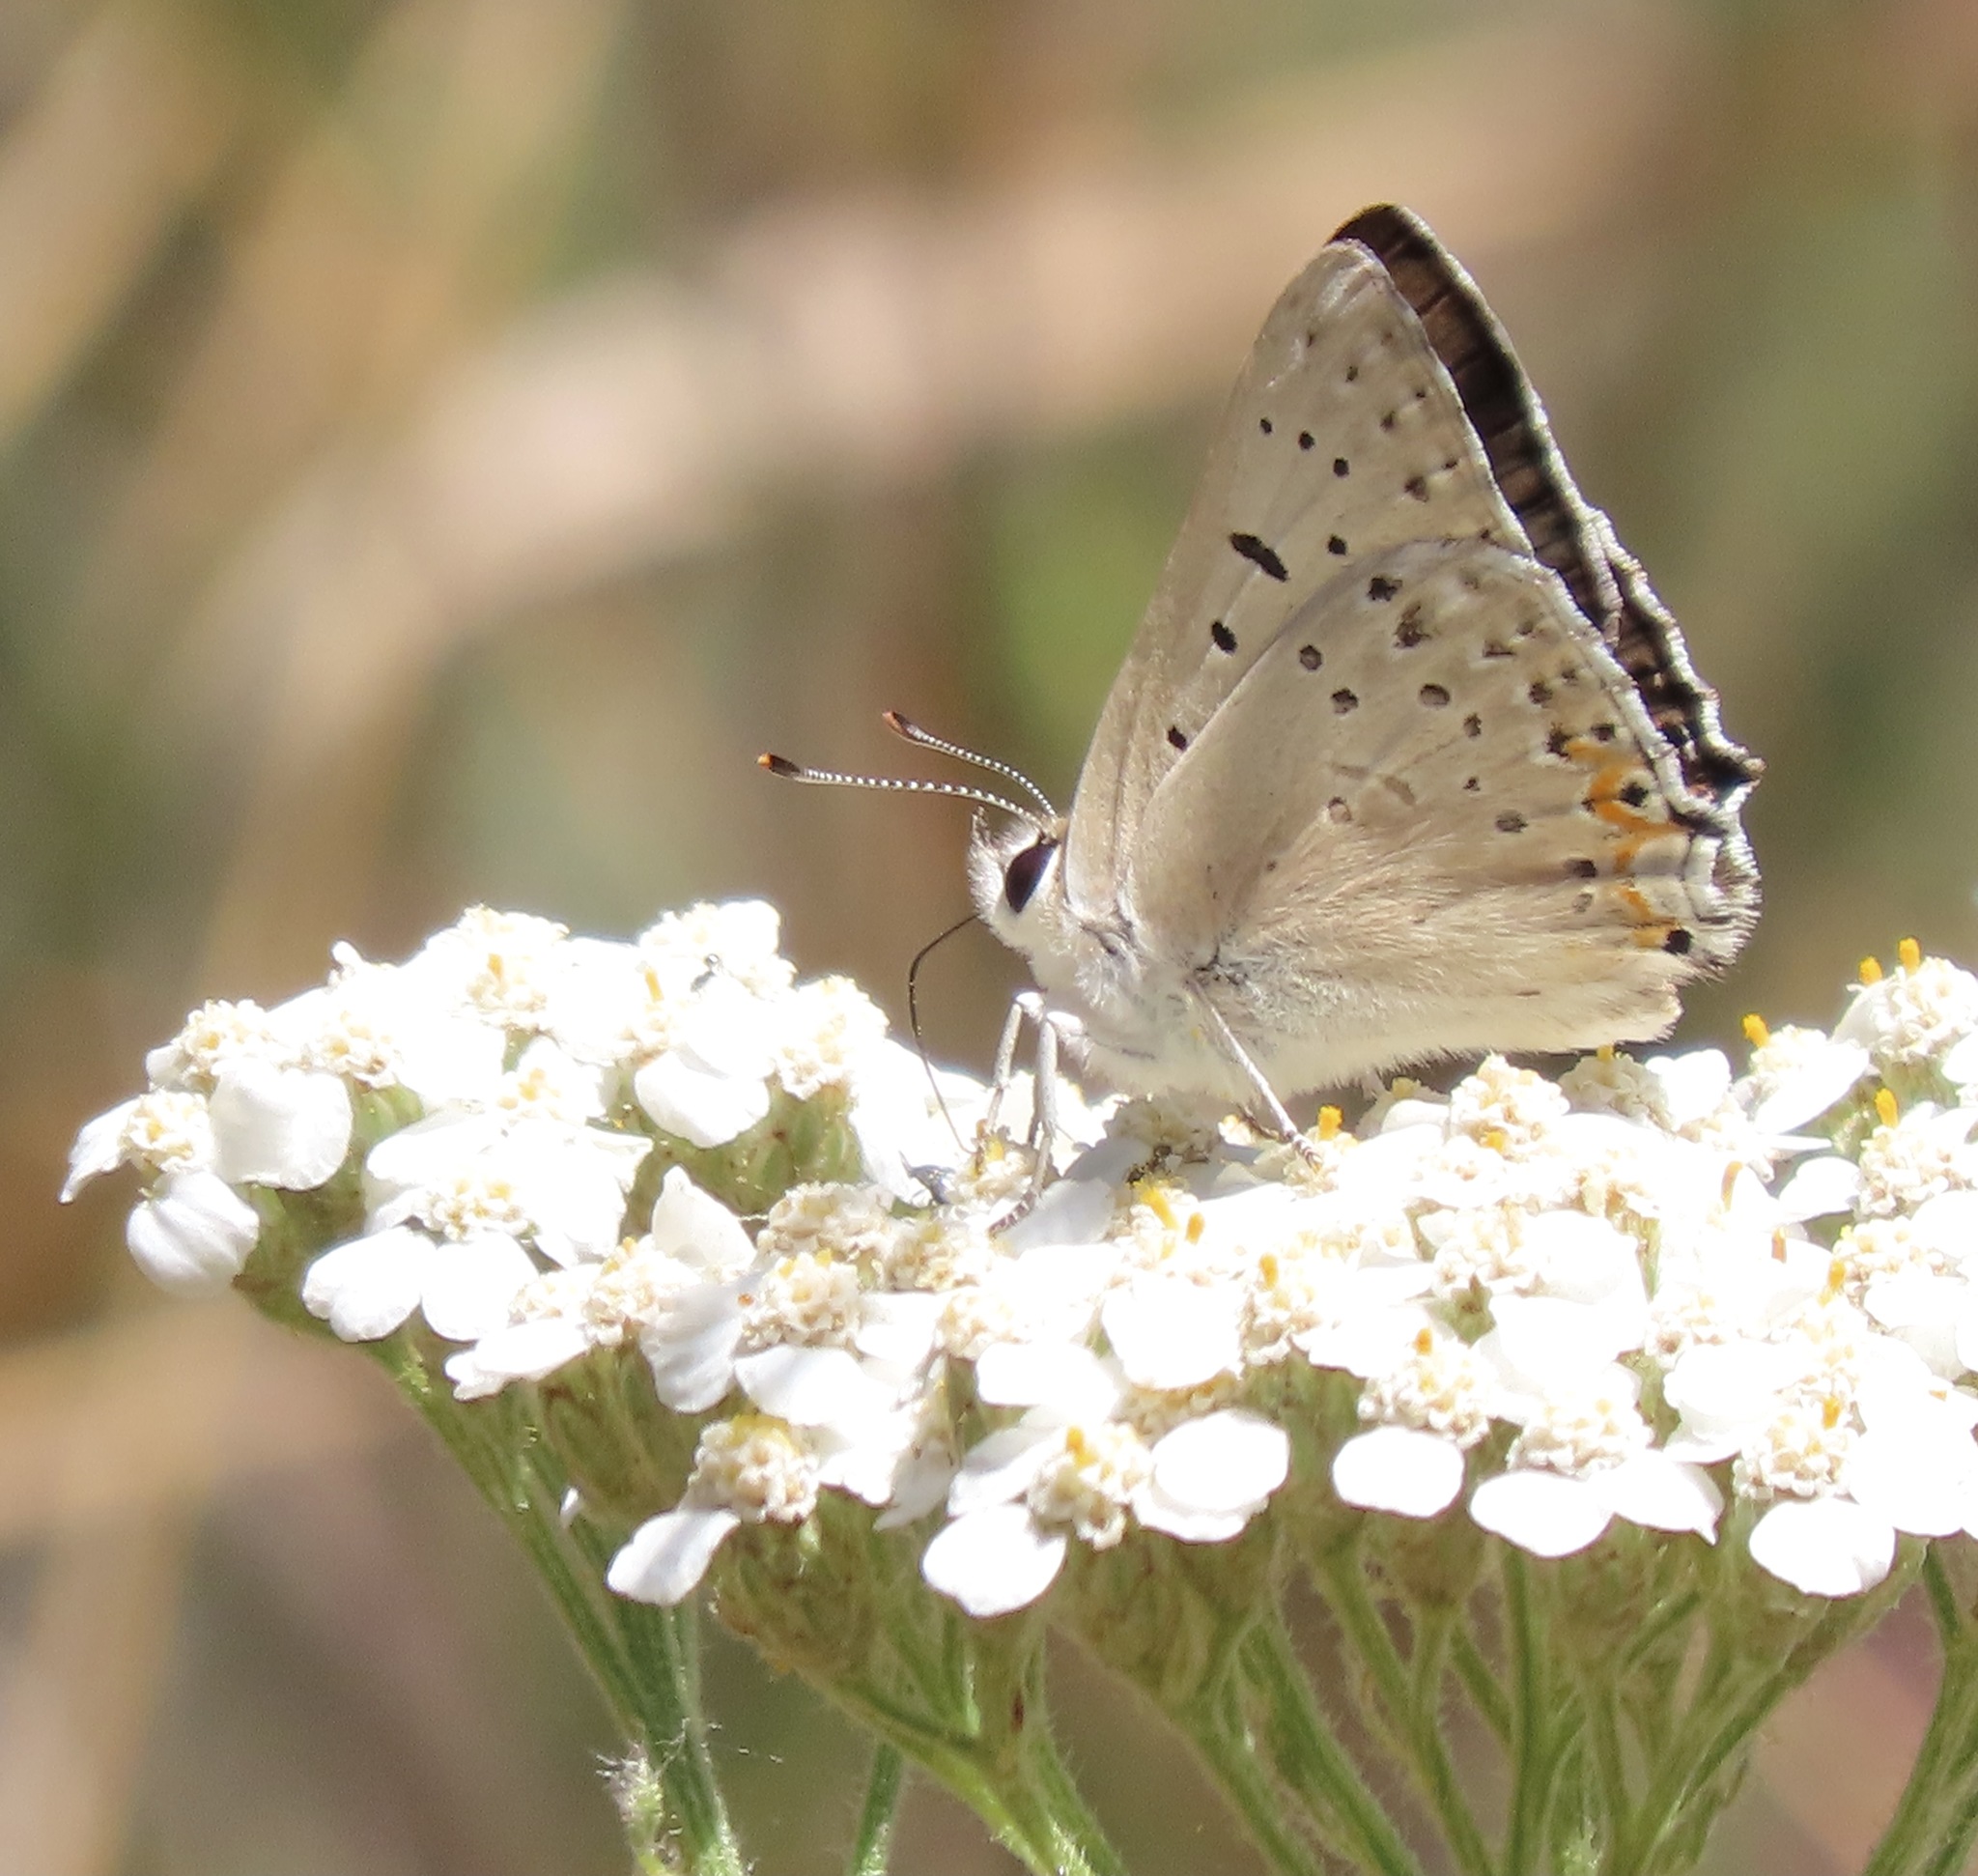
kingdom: Animalia
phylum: Arthropoda
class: Insecta
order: Lepidoptera
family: Lycaenidae
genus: Tharsalea
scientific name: Tharsalea xanthoides
